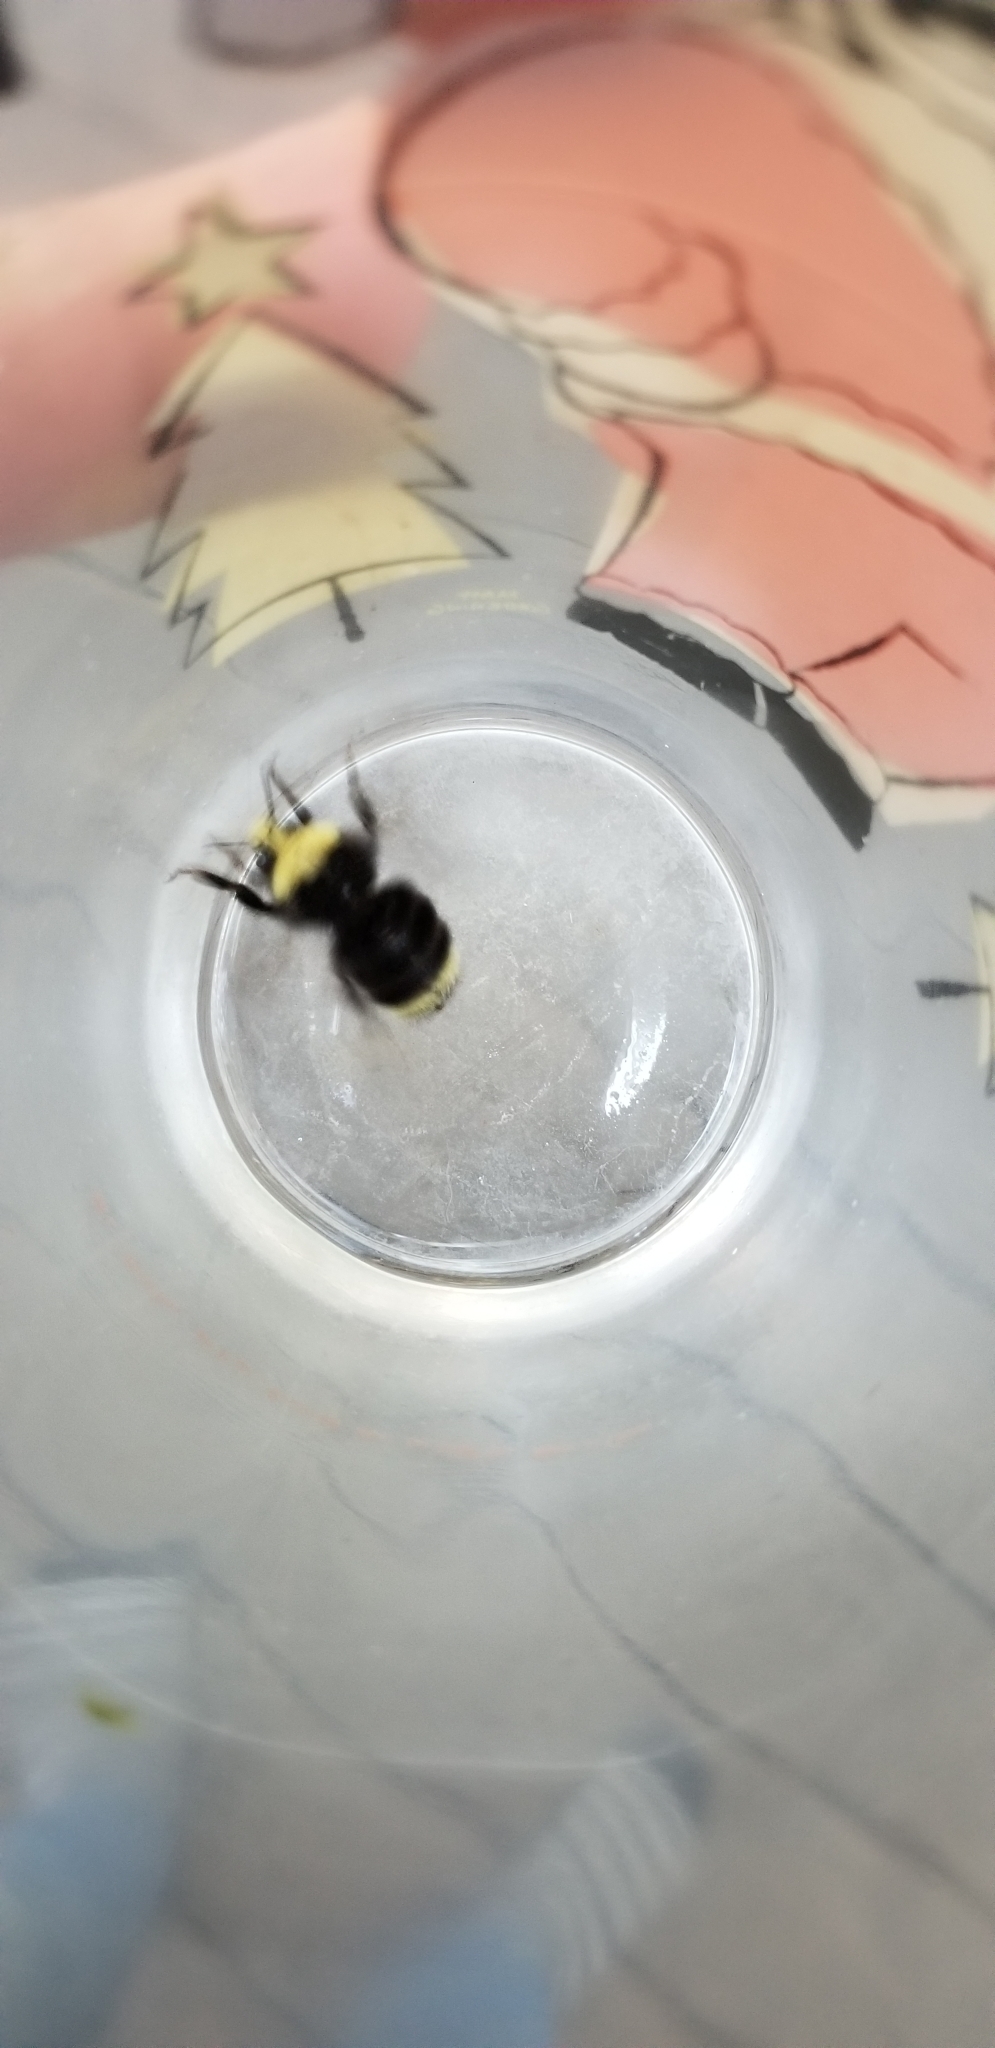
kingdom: Animalia
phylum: Arthropoda
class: Insecta
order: Hymenoptera
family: Apidae
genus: Bombus
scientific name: Bombus vosnesenskii
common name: Vosnesensky bumble bee
